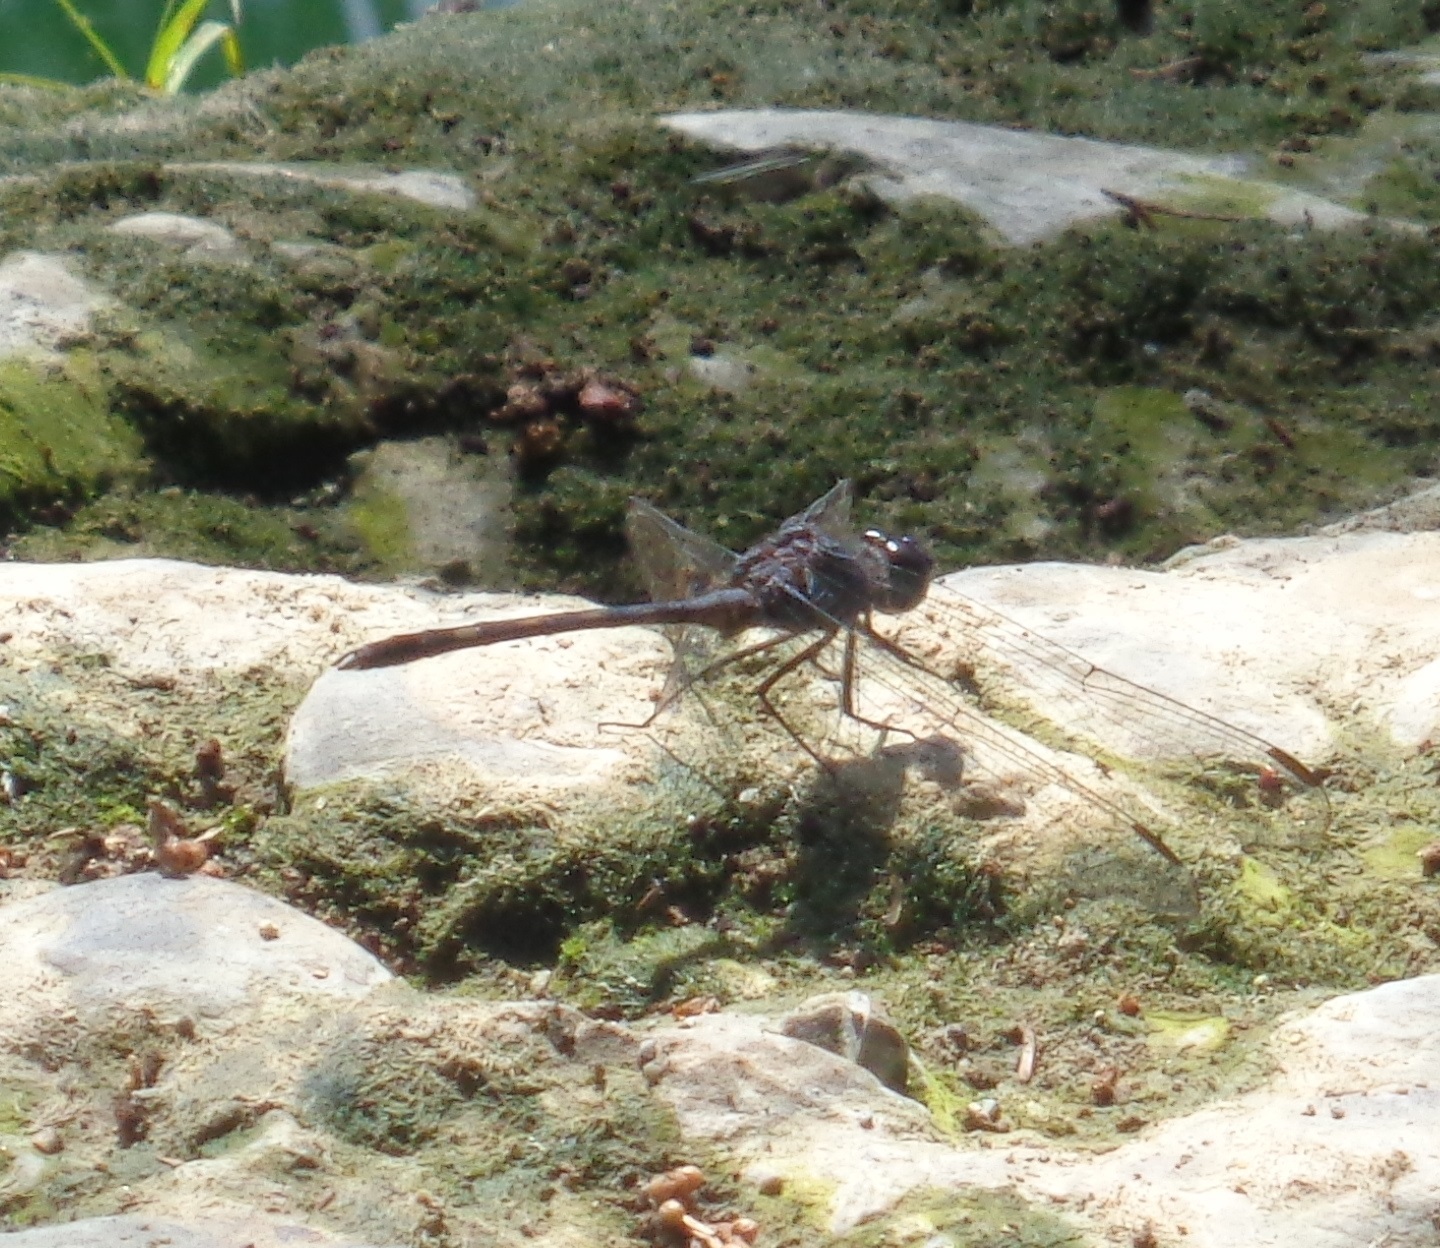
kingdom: Animalia
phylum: Arthropoda
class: Insecta
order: Odonata
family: Libellulidae
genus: Dythemis
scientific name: Dythemis nigrescens
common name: Black setwing
